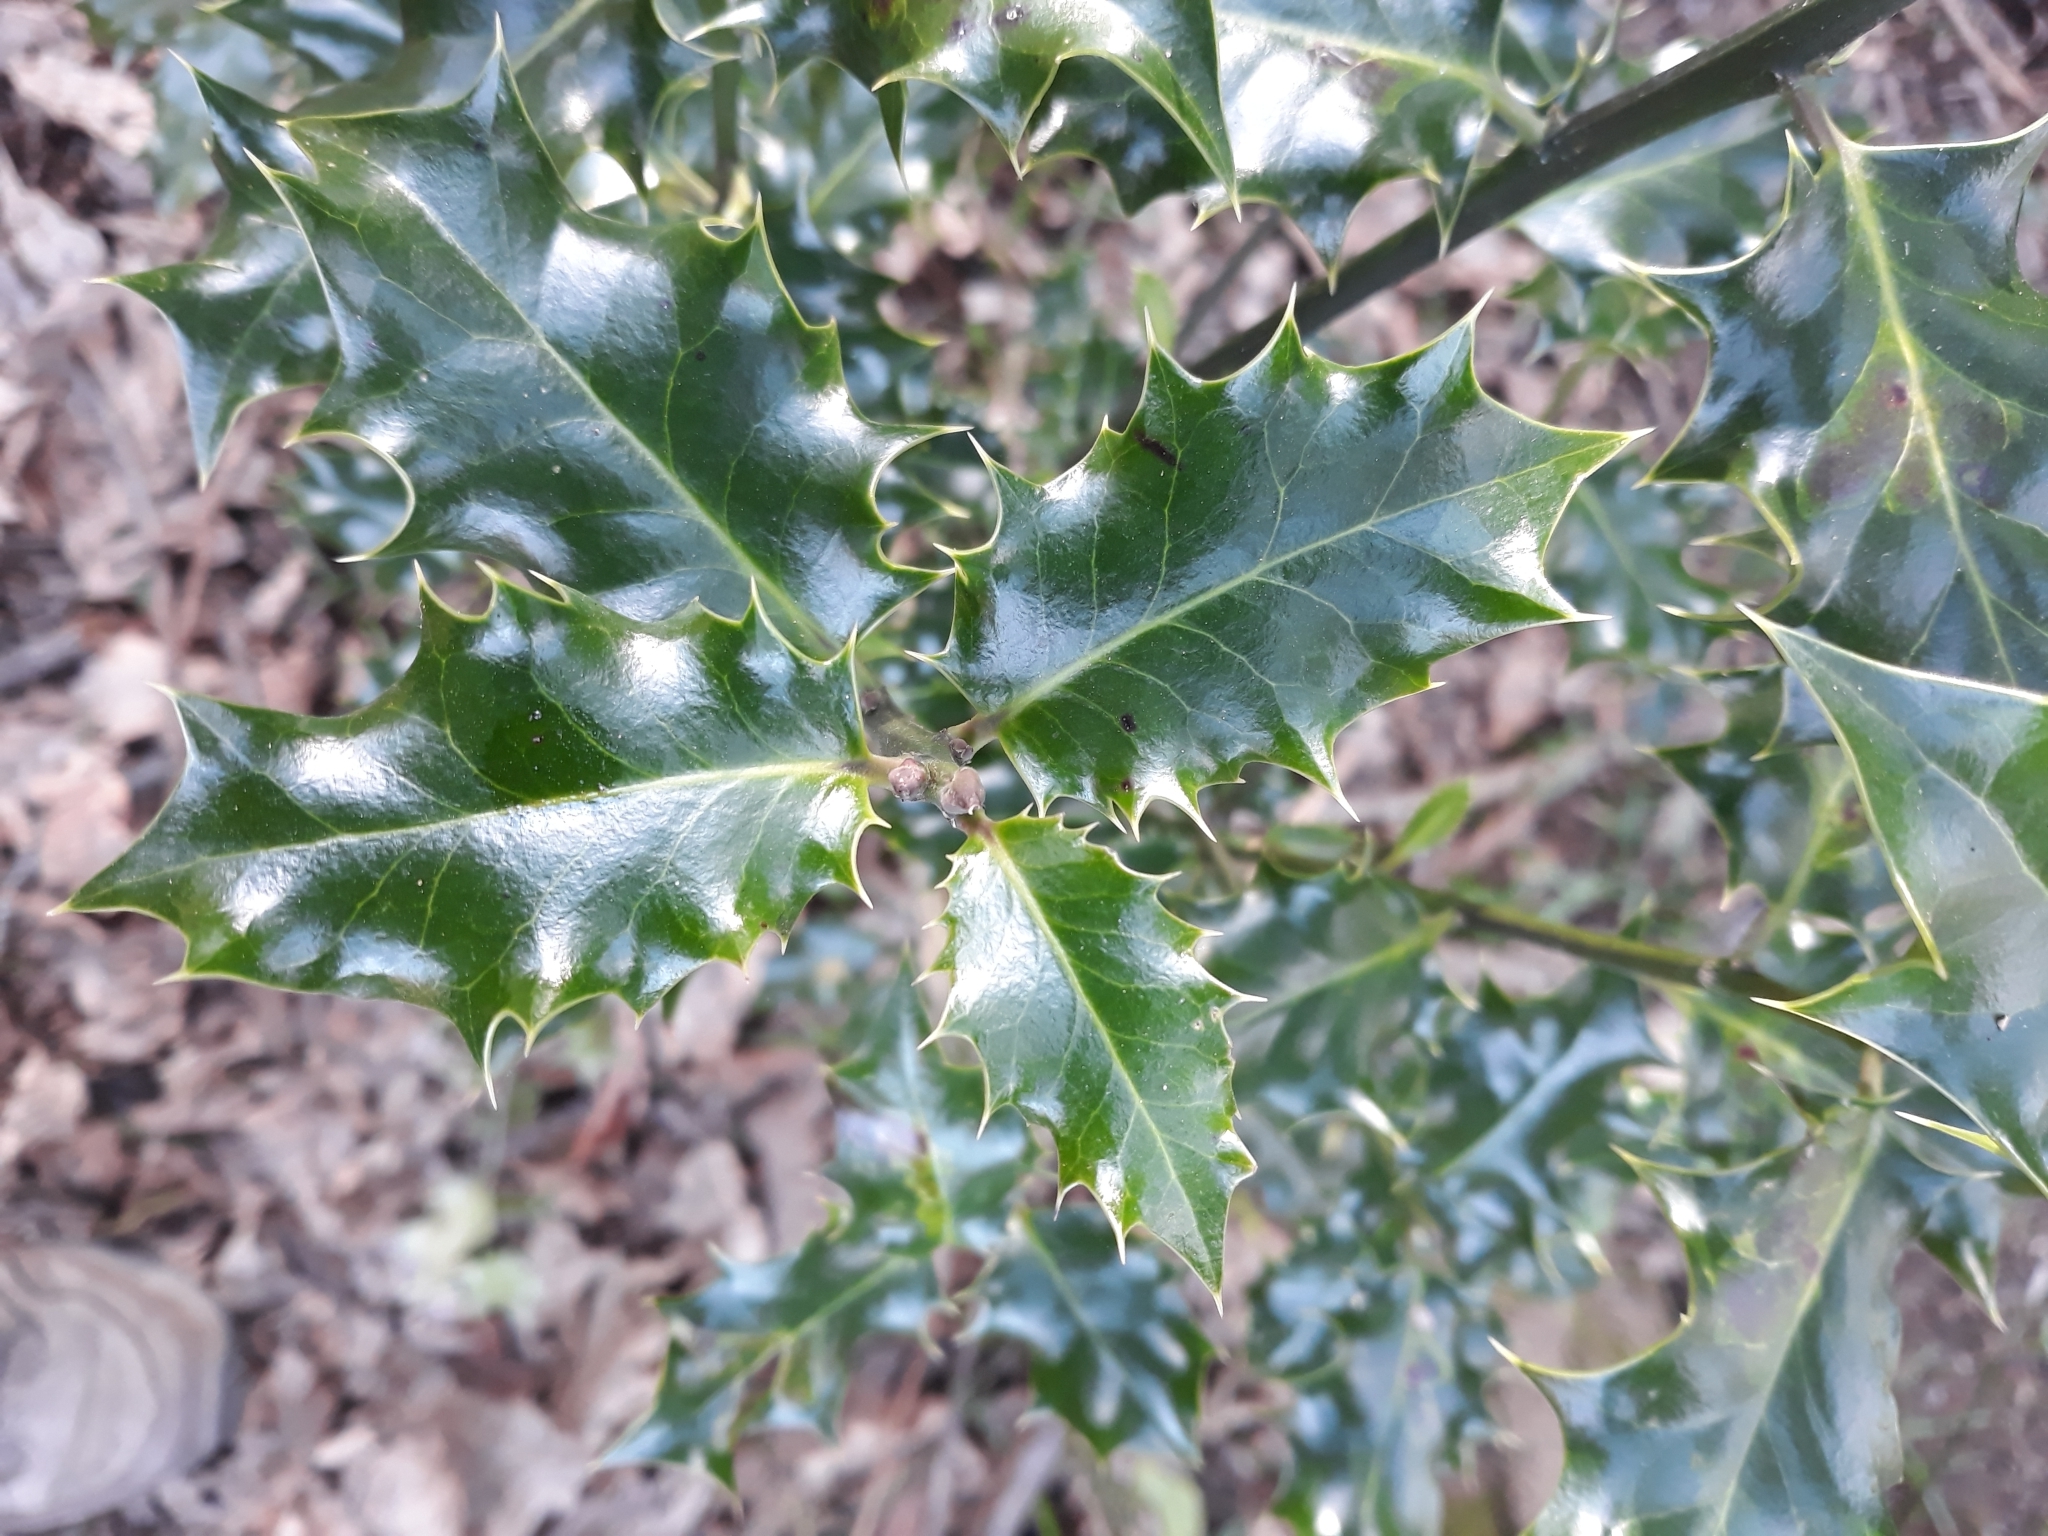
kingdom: Plantae
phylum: Tracheophyta
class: Magnoliopsida
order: Aquifoliales
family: Aquifoliaceae
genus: Ilex
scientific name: Ilex aquifolium
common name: English holly
